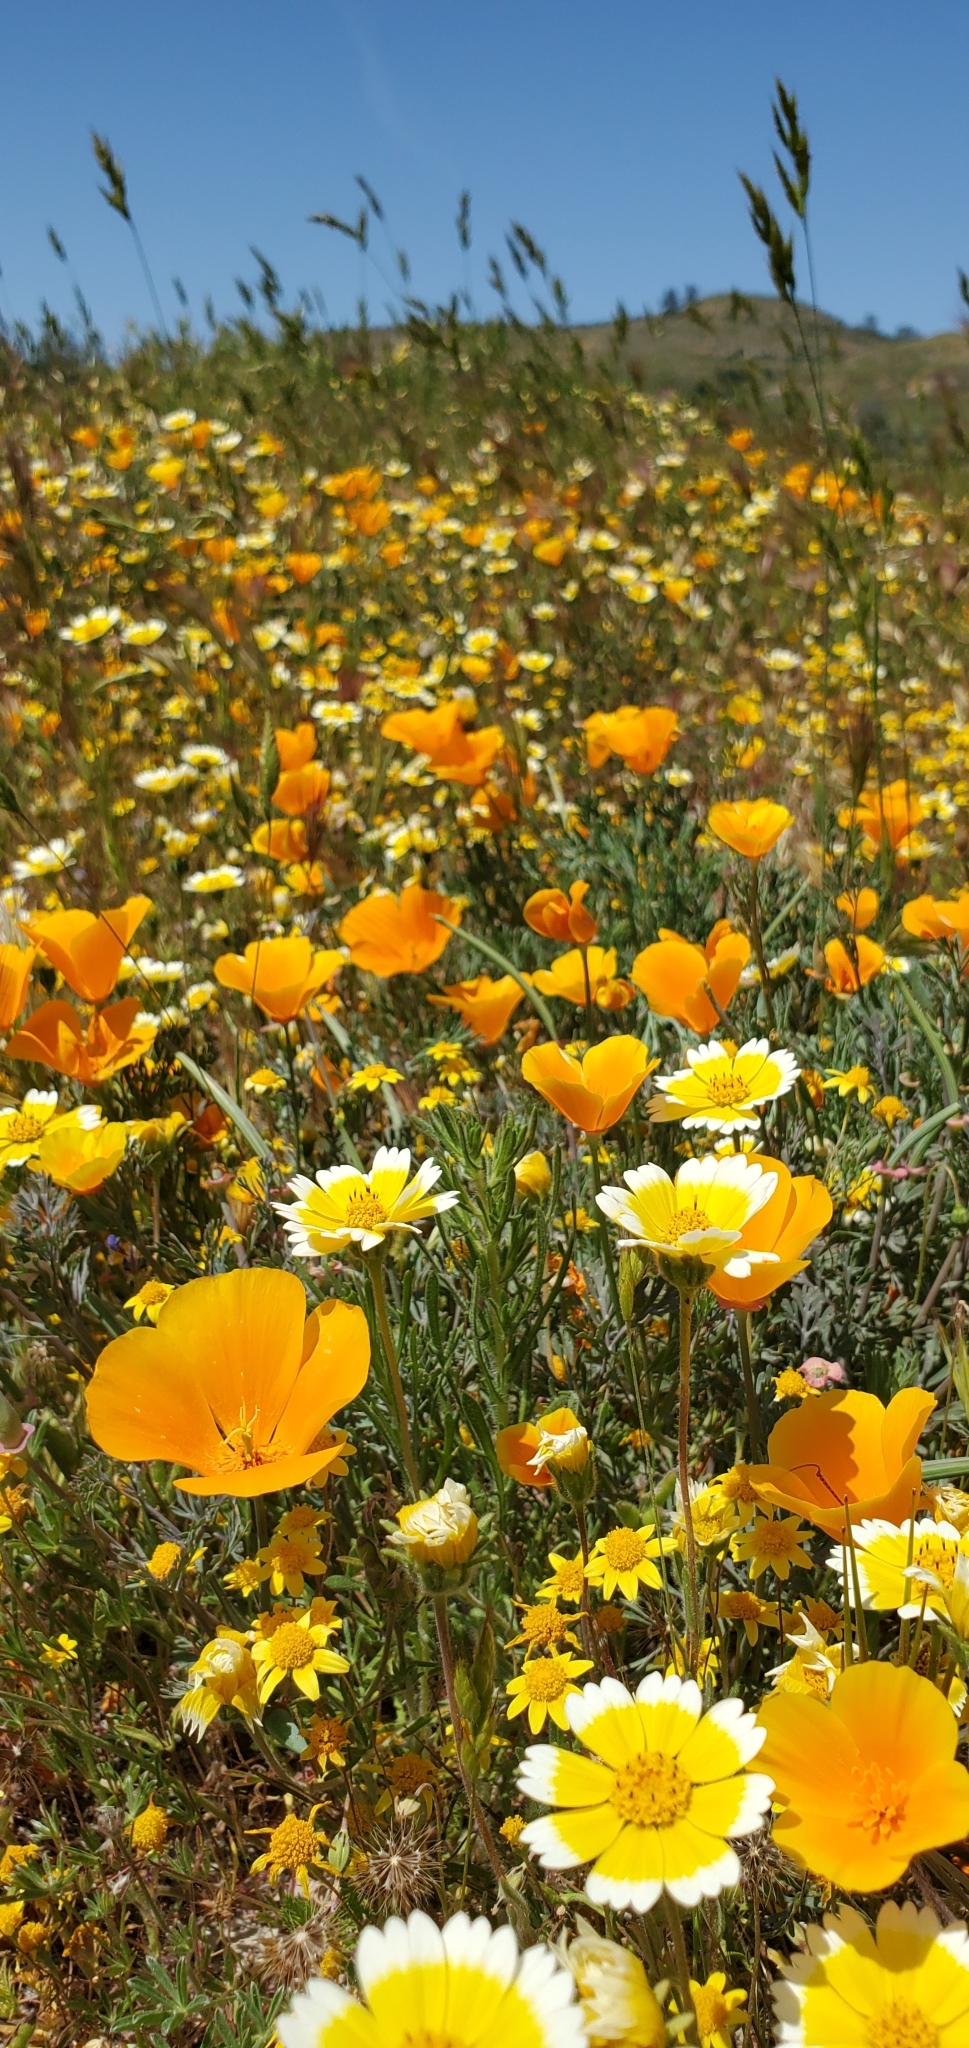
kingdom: Plantae
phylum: Tracheophyta
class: Magnoliopsida
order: Asterales
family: Asteraceae
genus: Layia
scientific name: Layia platyglossa
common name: Tidy-tips
